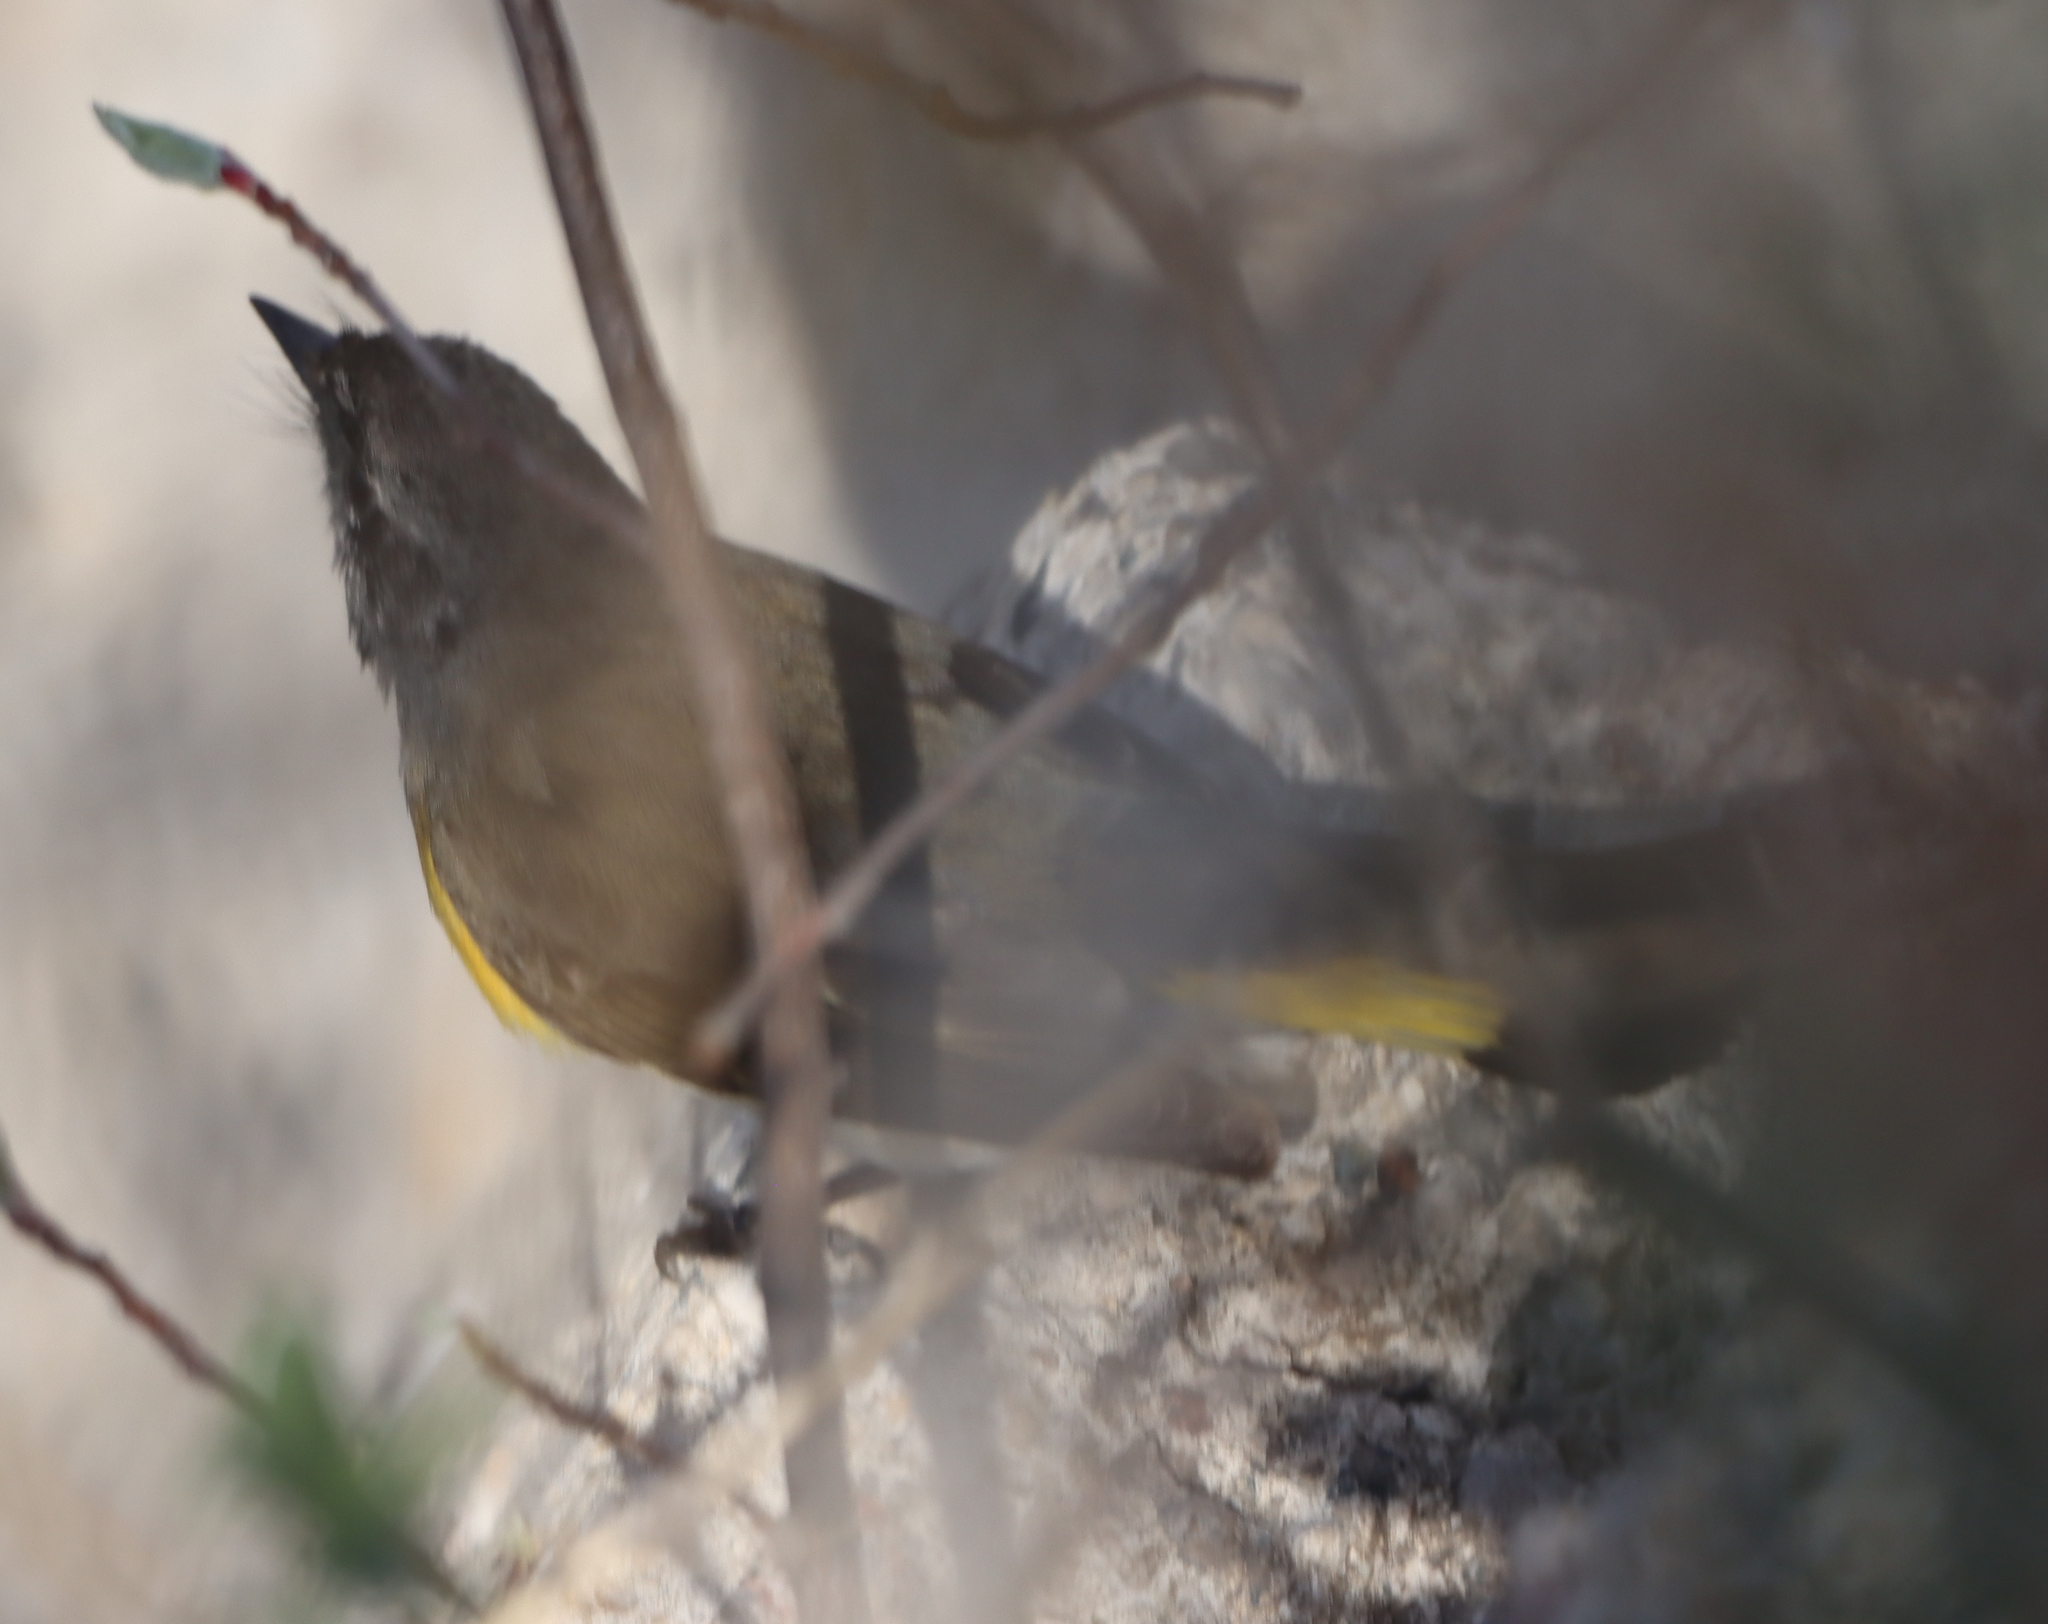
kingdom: Animalia
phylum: Chordata
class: Aves
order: Passeriformes
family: Parulidae
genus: Setophaga
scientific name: Setophaga ruticilla
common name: American redstart
